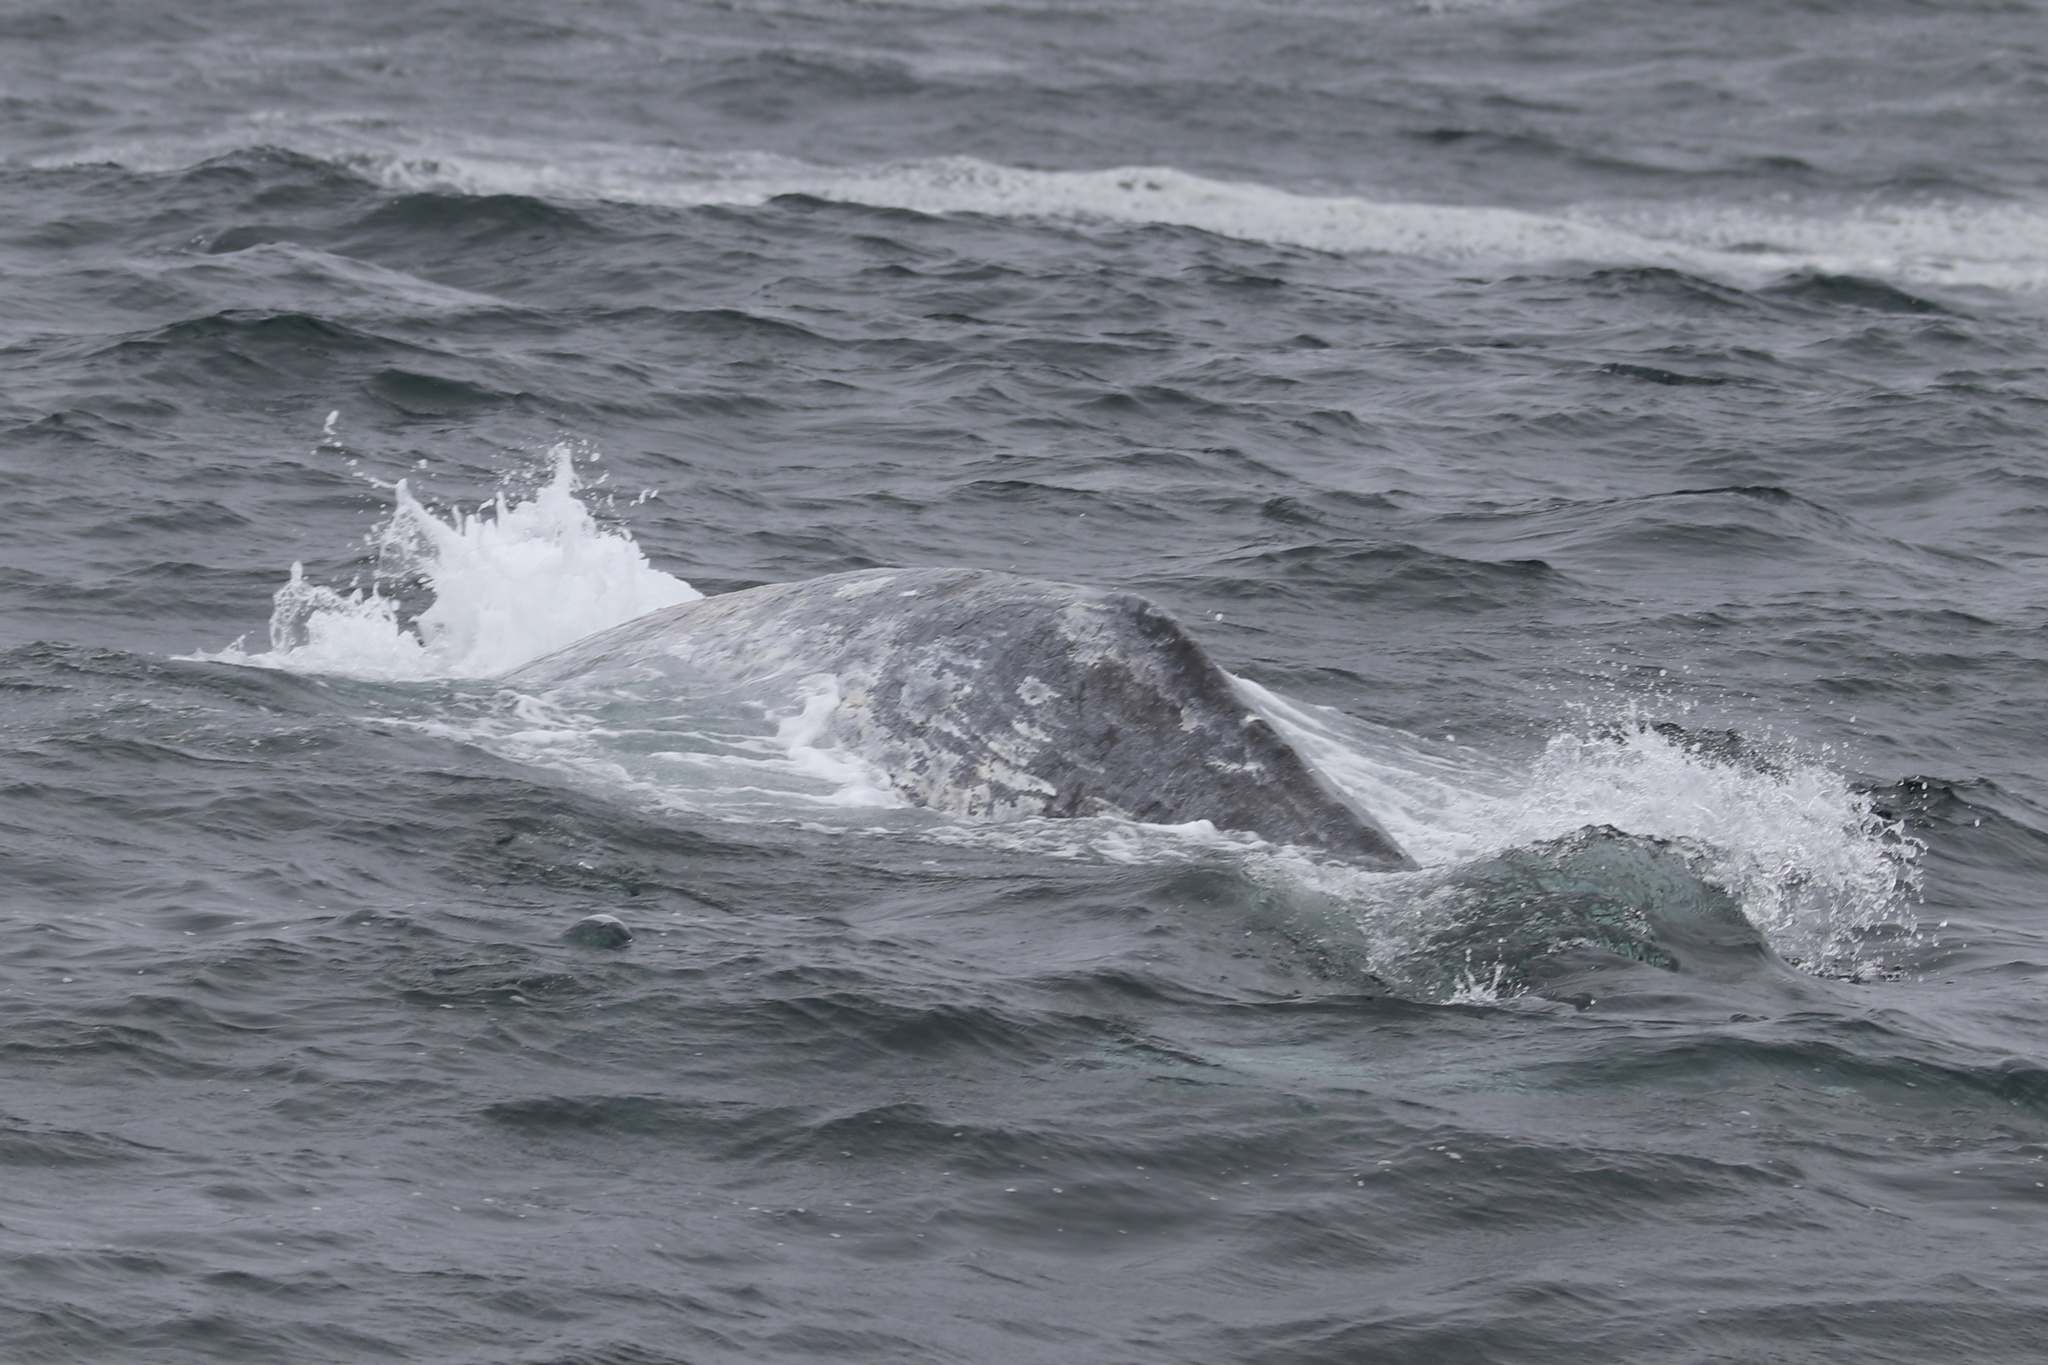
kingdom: Animalia
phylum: Chordata
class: Mammalia
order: Cetacea
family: Eschrichtiidae
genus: Eschrichtius
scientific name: Eschrichtius robustus
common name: Gray whale
